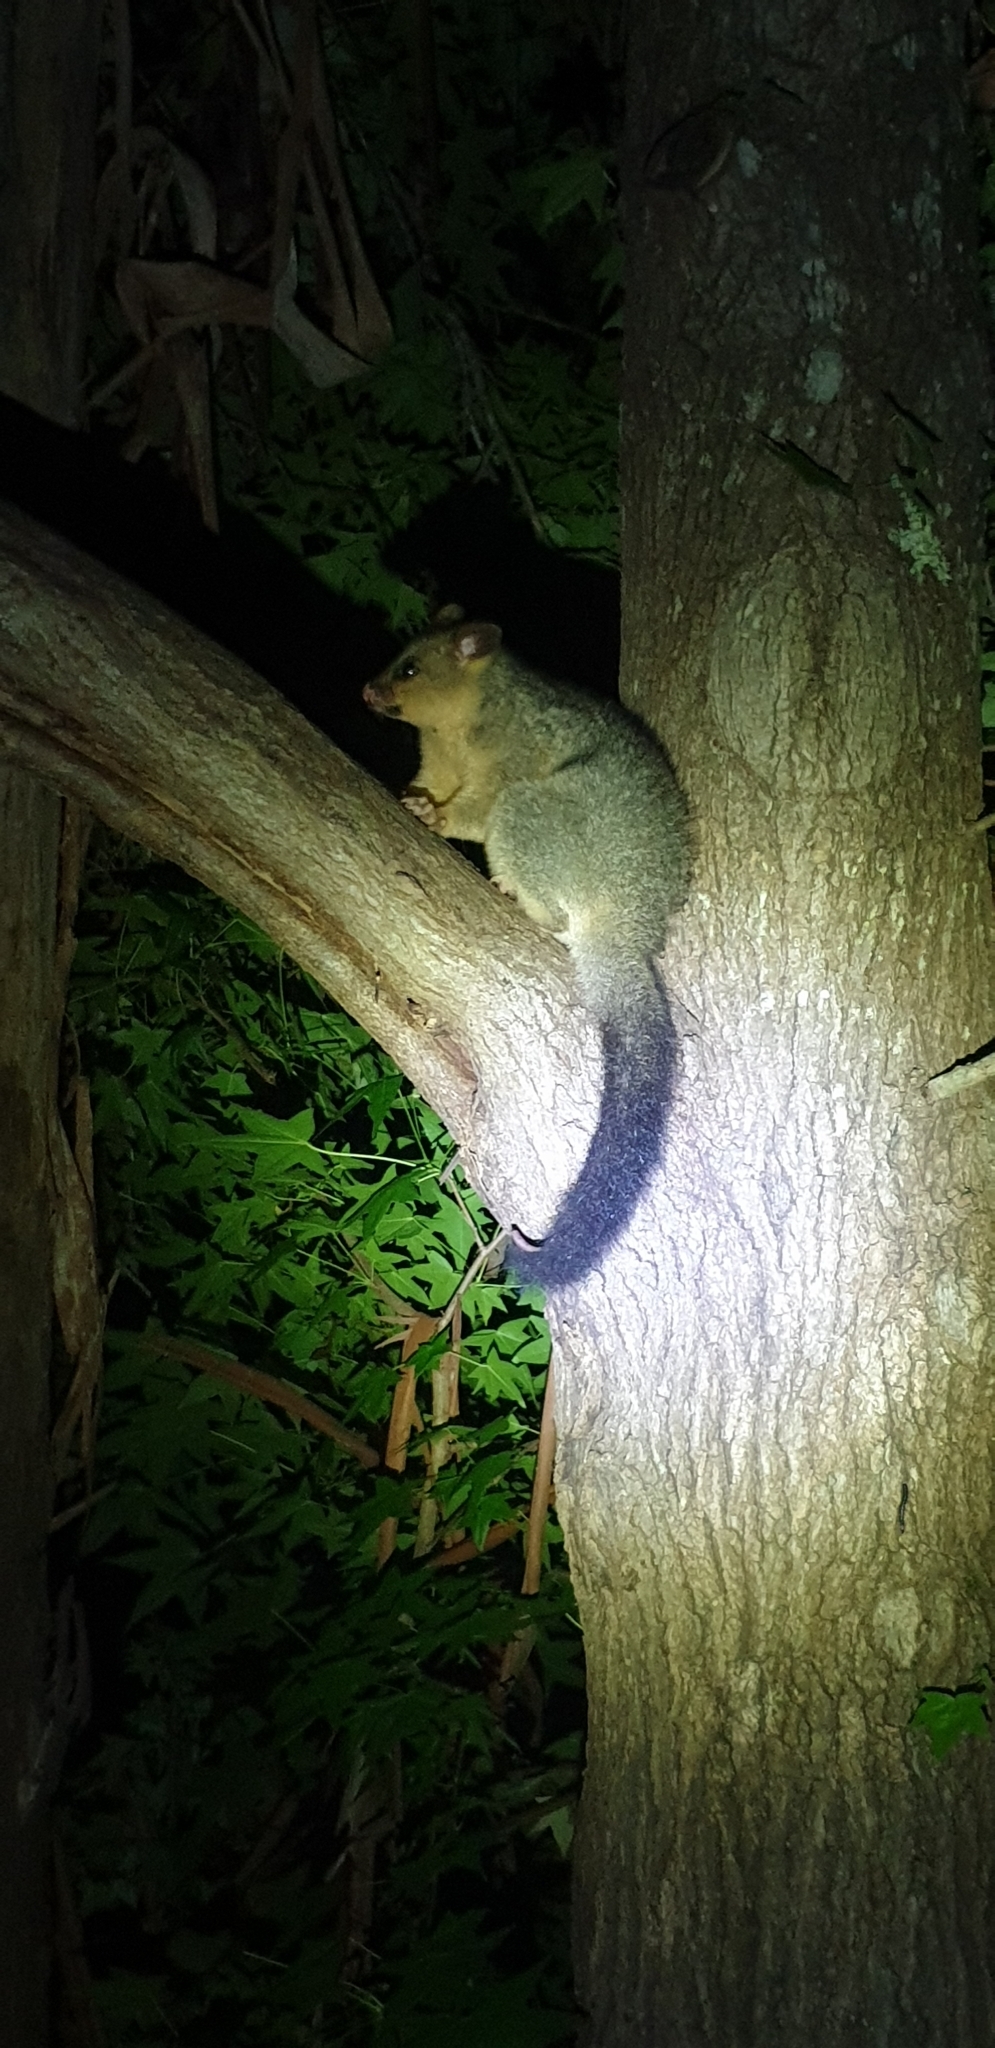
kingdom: Animalia
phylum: Chordata
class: Mammalia
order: Diprotodontia
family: Phalangeridae
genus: Trichosurus
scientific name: Trichosurus vulpecula
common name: Common brushtail
